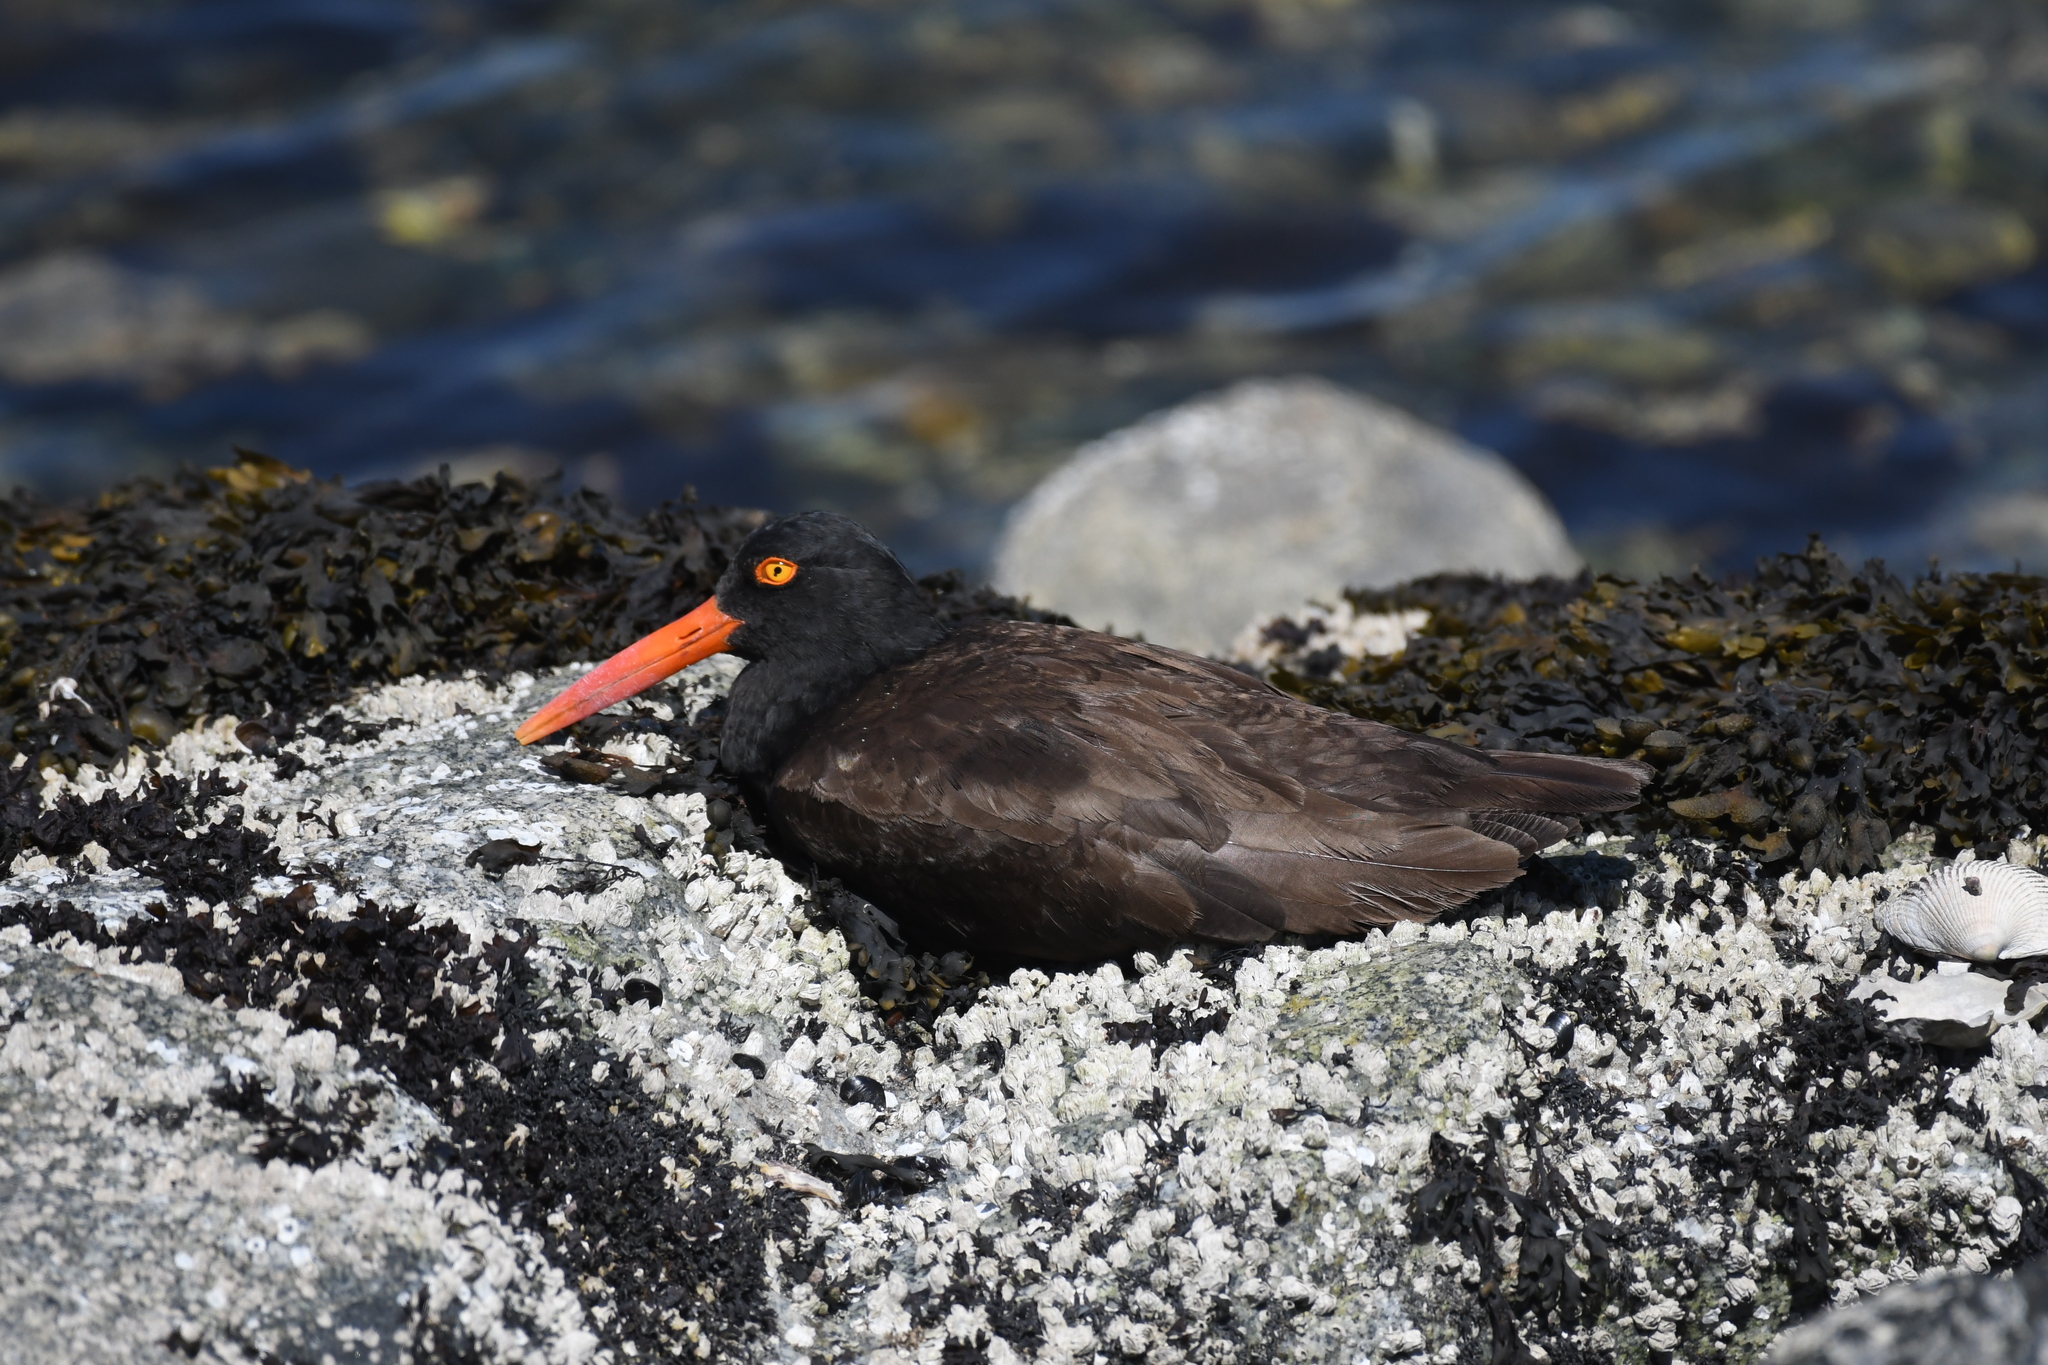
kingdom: Animalia
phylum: Chordata
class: Aves
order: Charadriiformes
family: Haematopodidae
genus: Haematopus
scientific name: Haematopus bachmani
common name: Black oystercatcher
